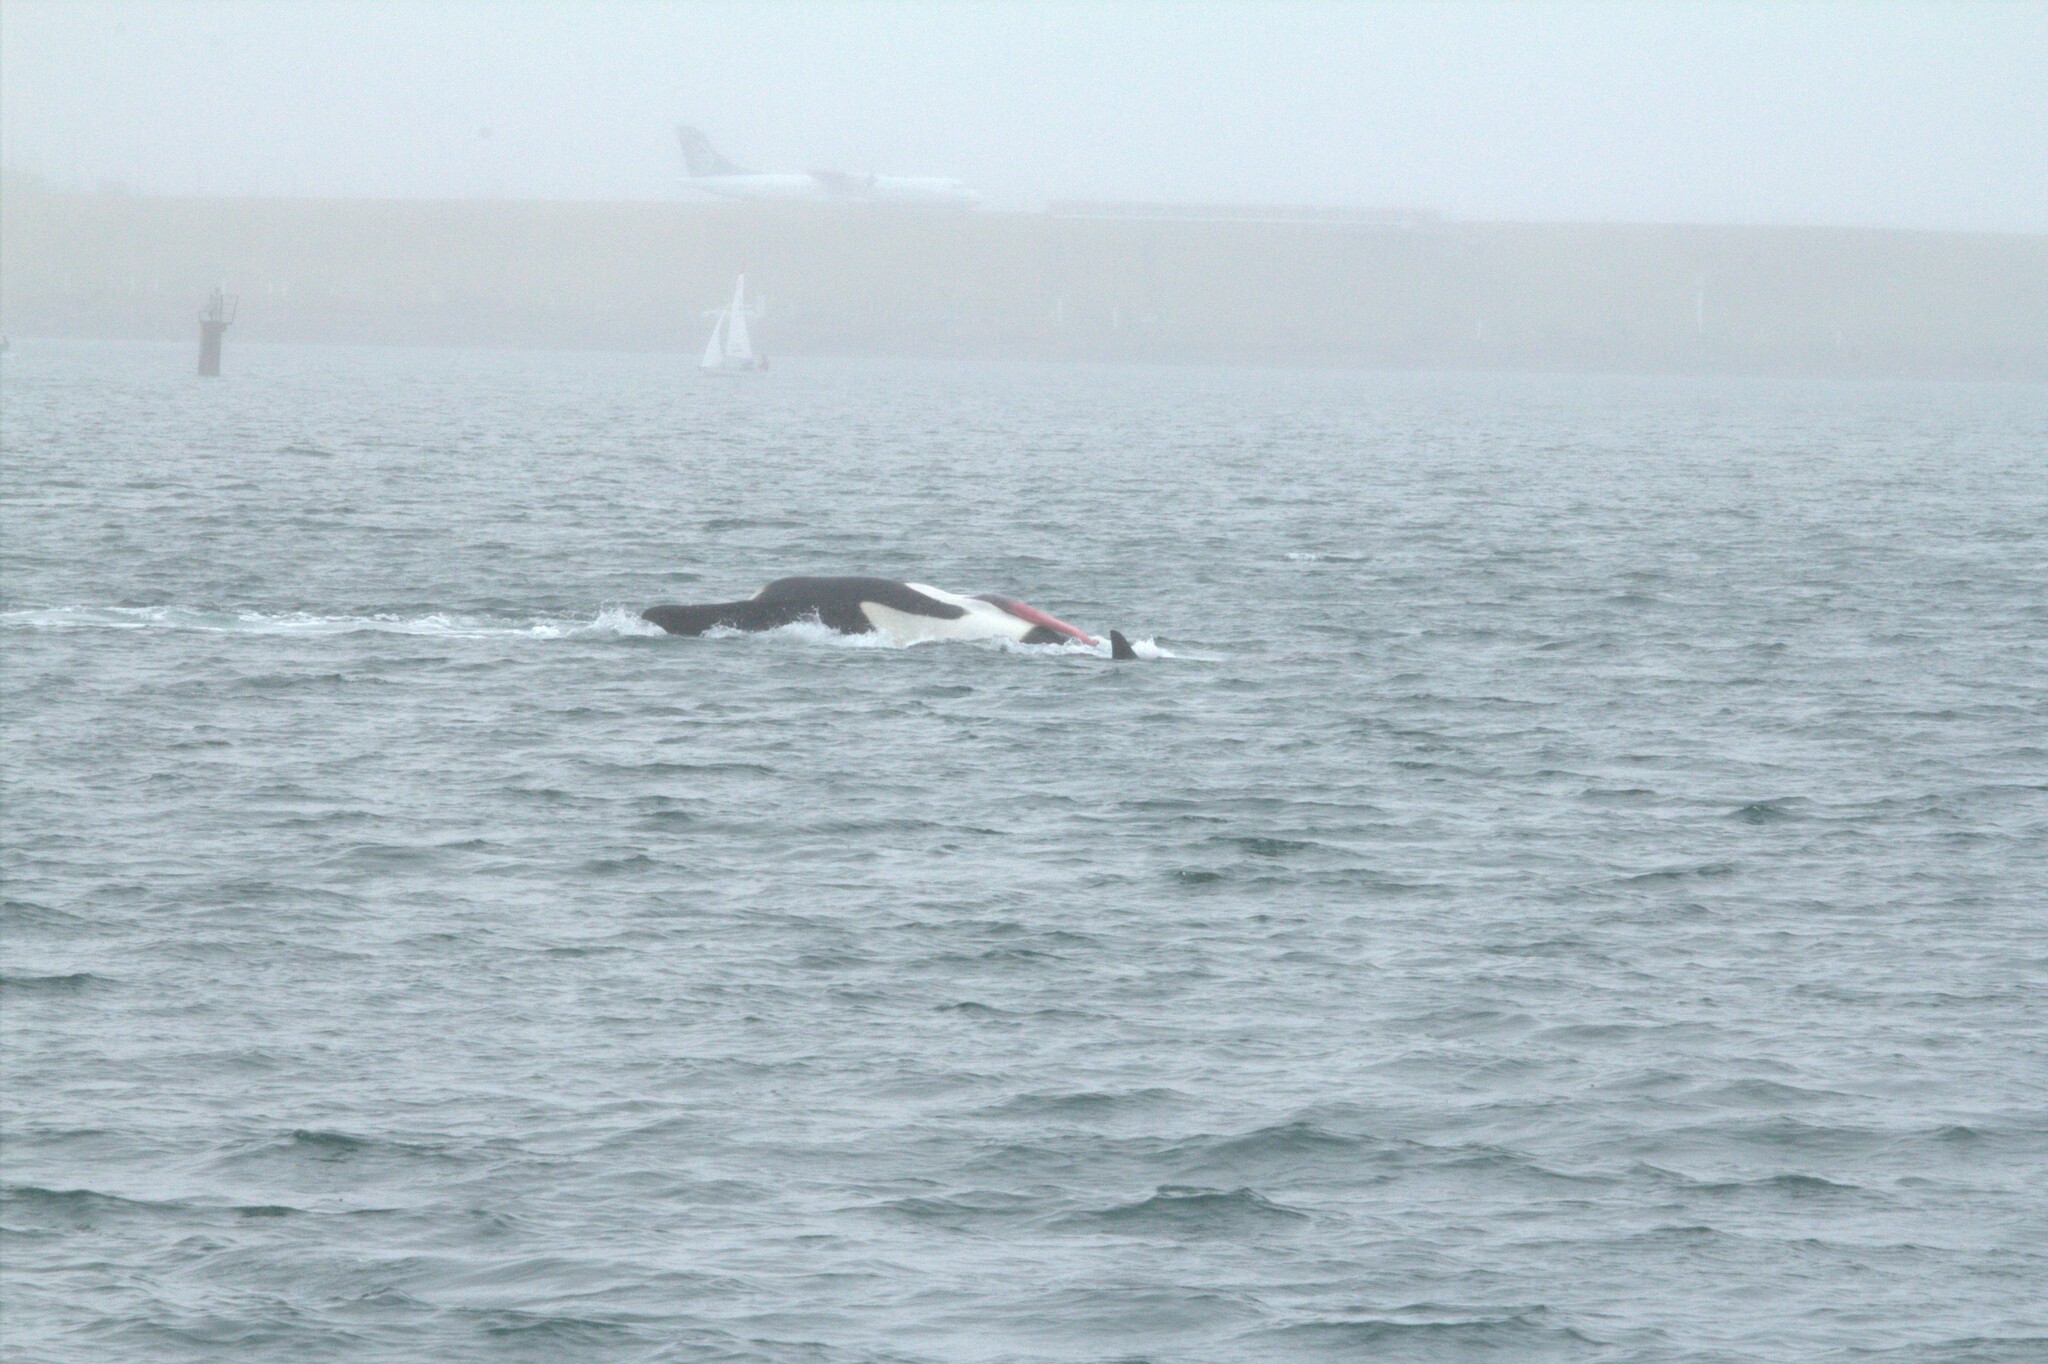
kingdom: Animalia
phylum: Chordata
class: Mammalia
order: Cetacea
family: Delphinidae
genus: Orcinus
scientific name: Orcinus orca
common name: Killer whale
